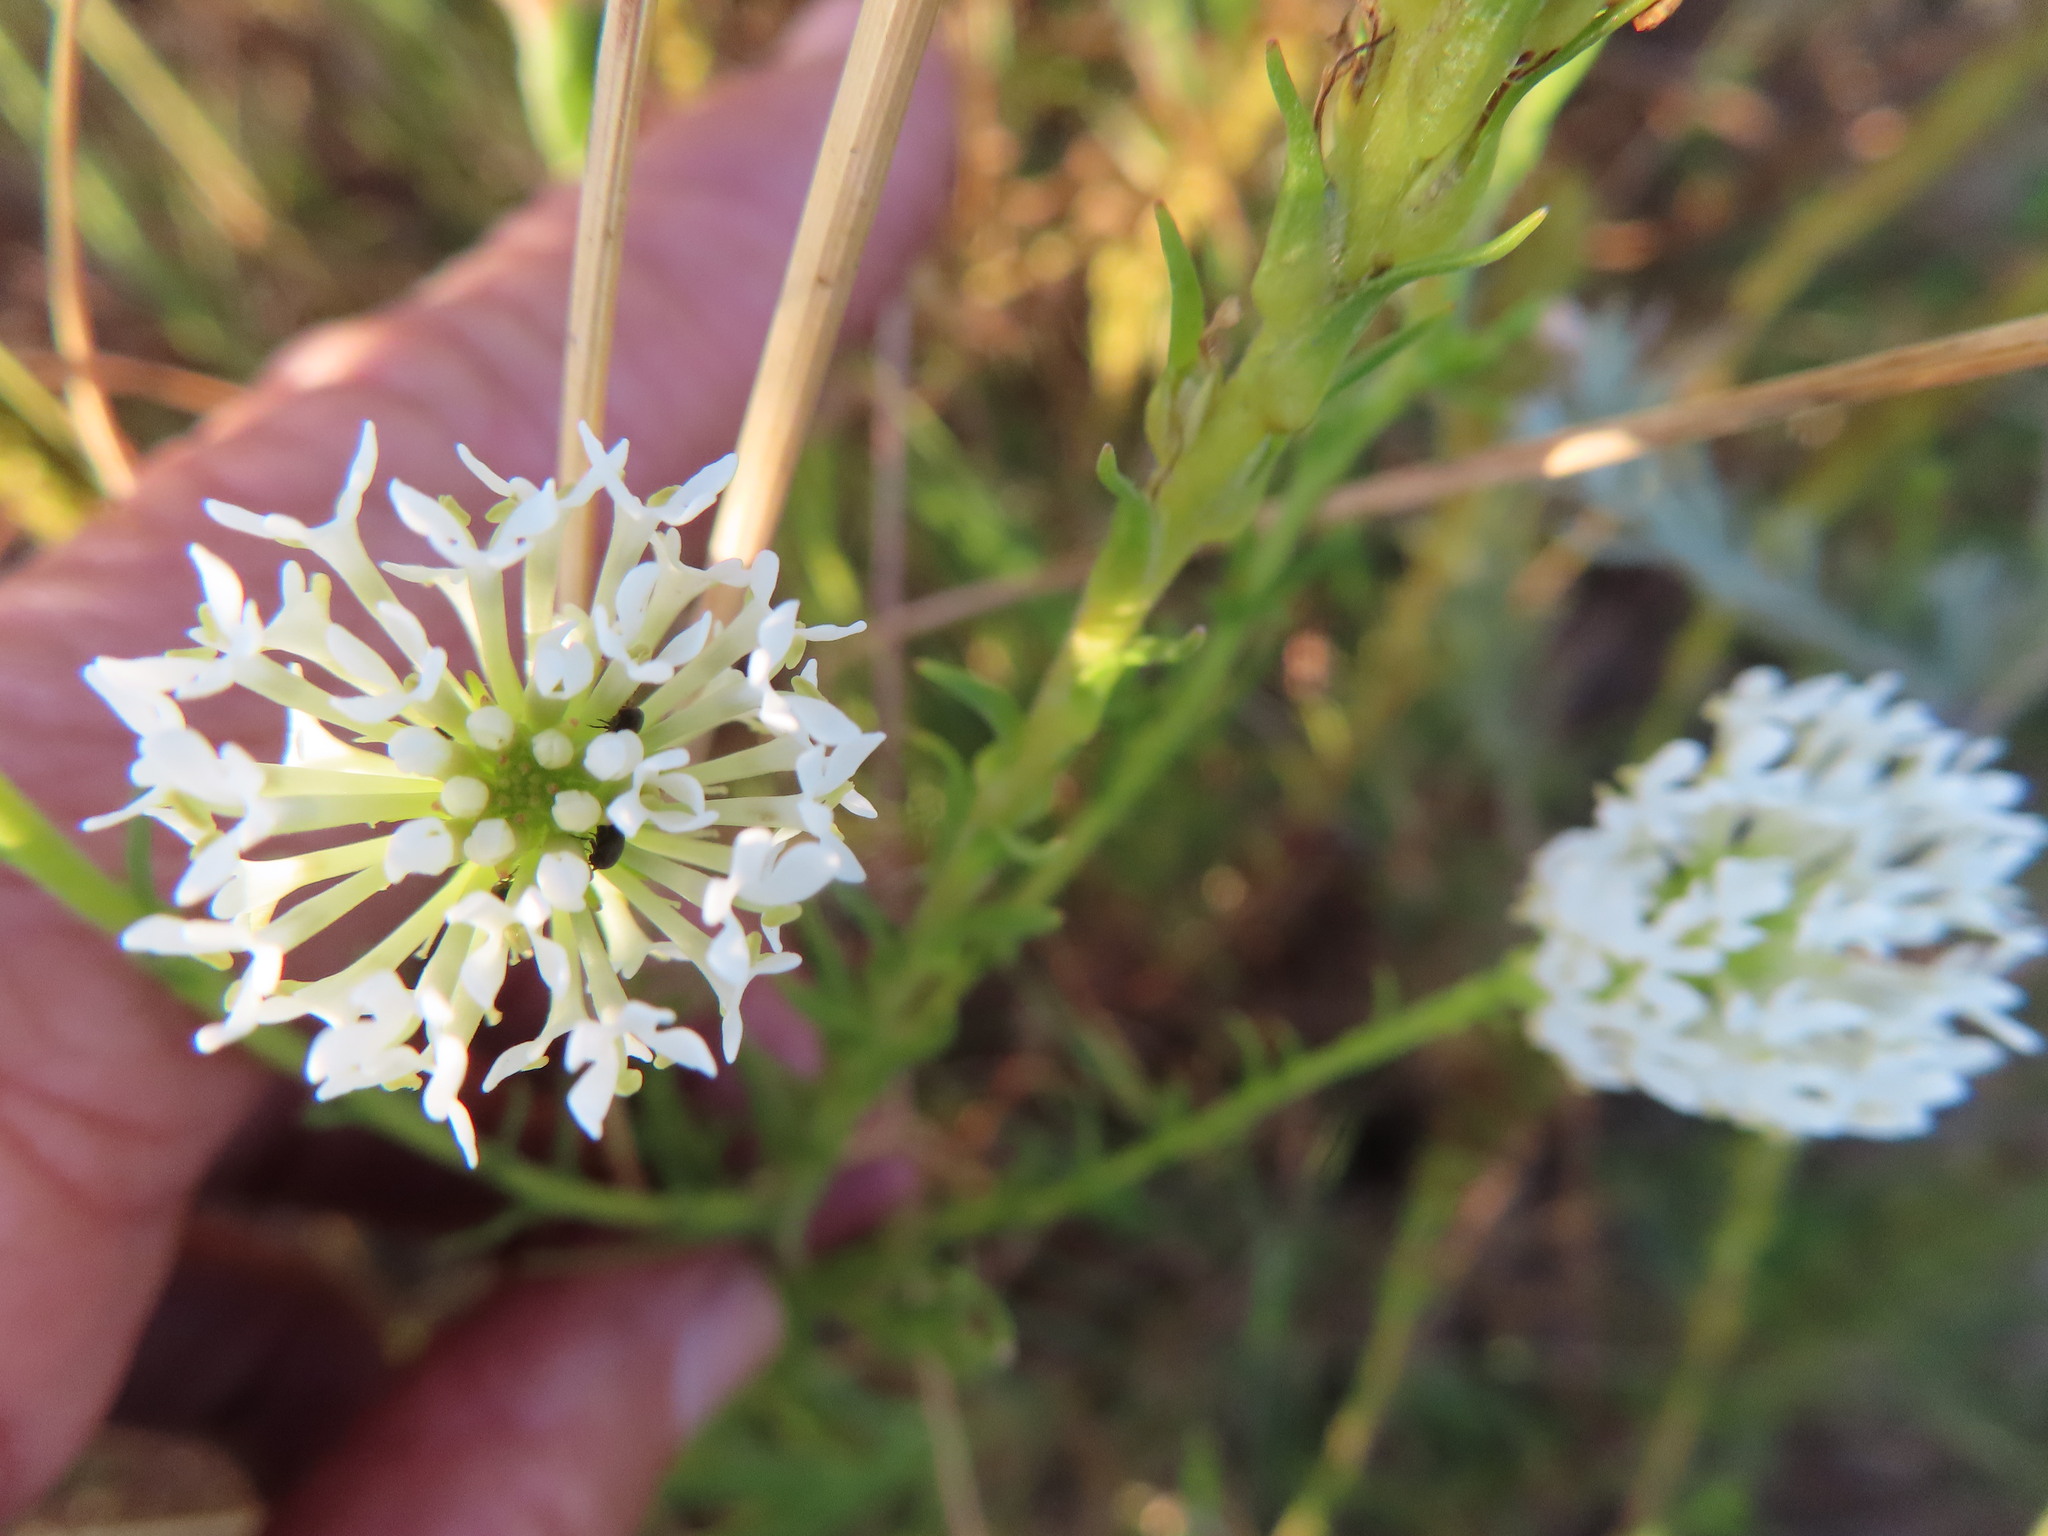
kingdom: Plantae
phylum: Tracheophyta
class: Magnoliopsida
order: Lamiales
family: Scrophulariaceae
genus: Dischisma
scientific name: Dischisma ciliatum
